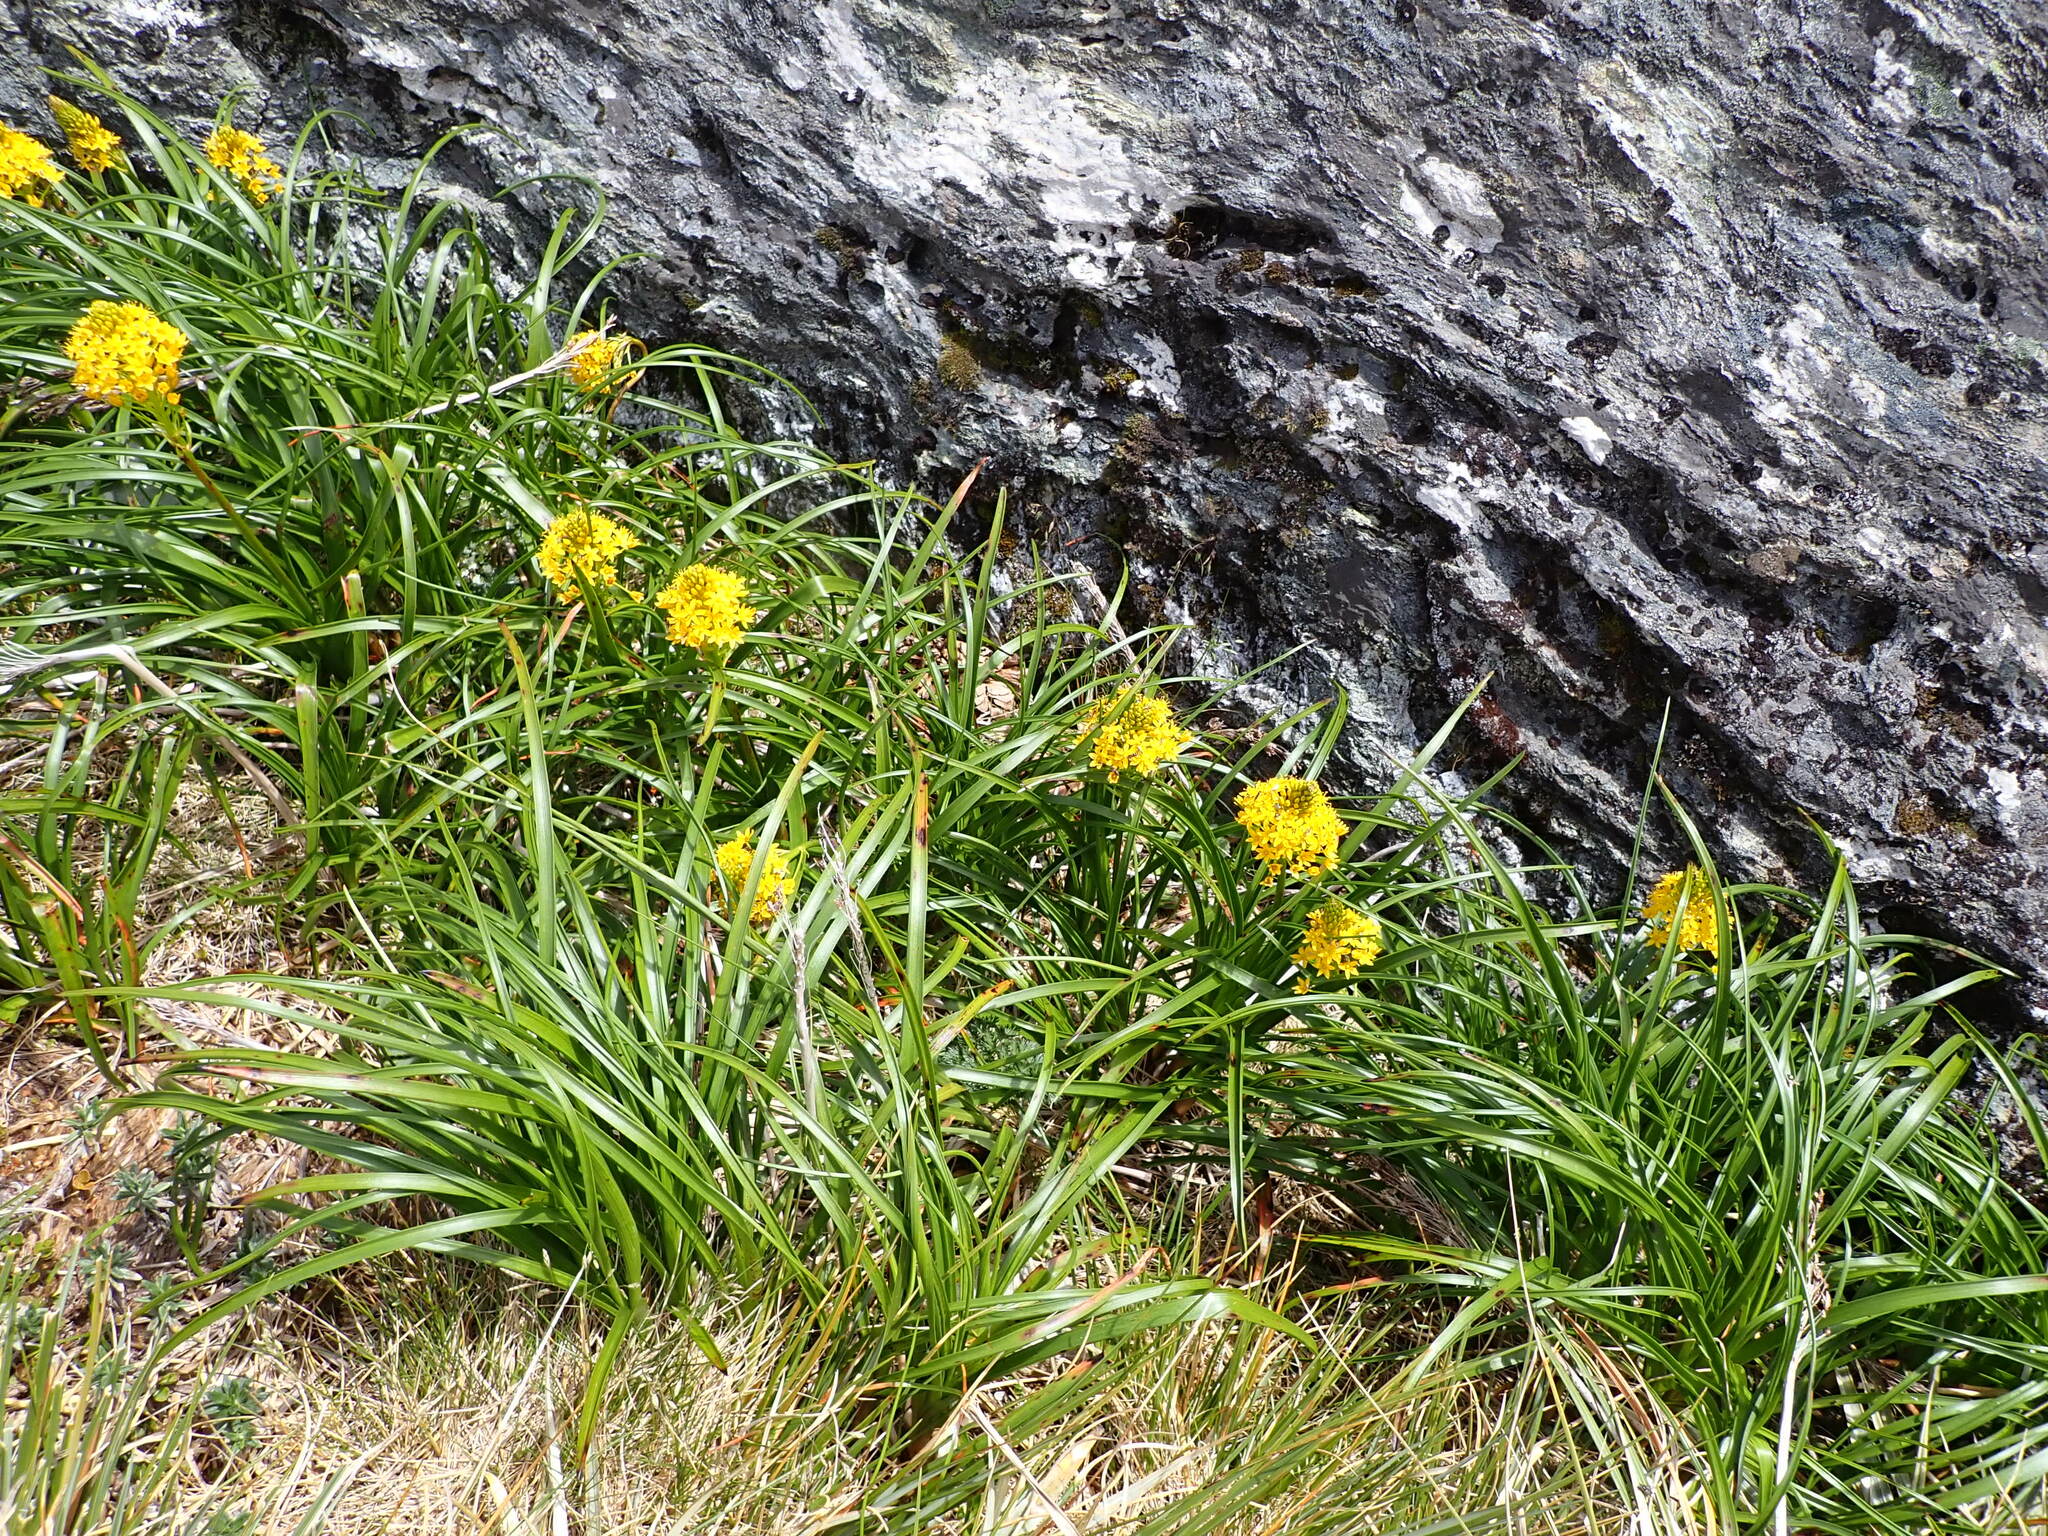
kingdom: Plantae
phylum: Tracheophyta
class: Liliopsida
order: Asparagales
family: Asphodelaceae
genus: Bulbinella
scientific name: Bulbinella gibbsii
